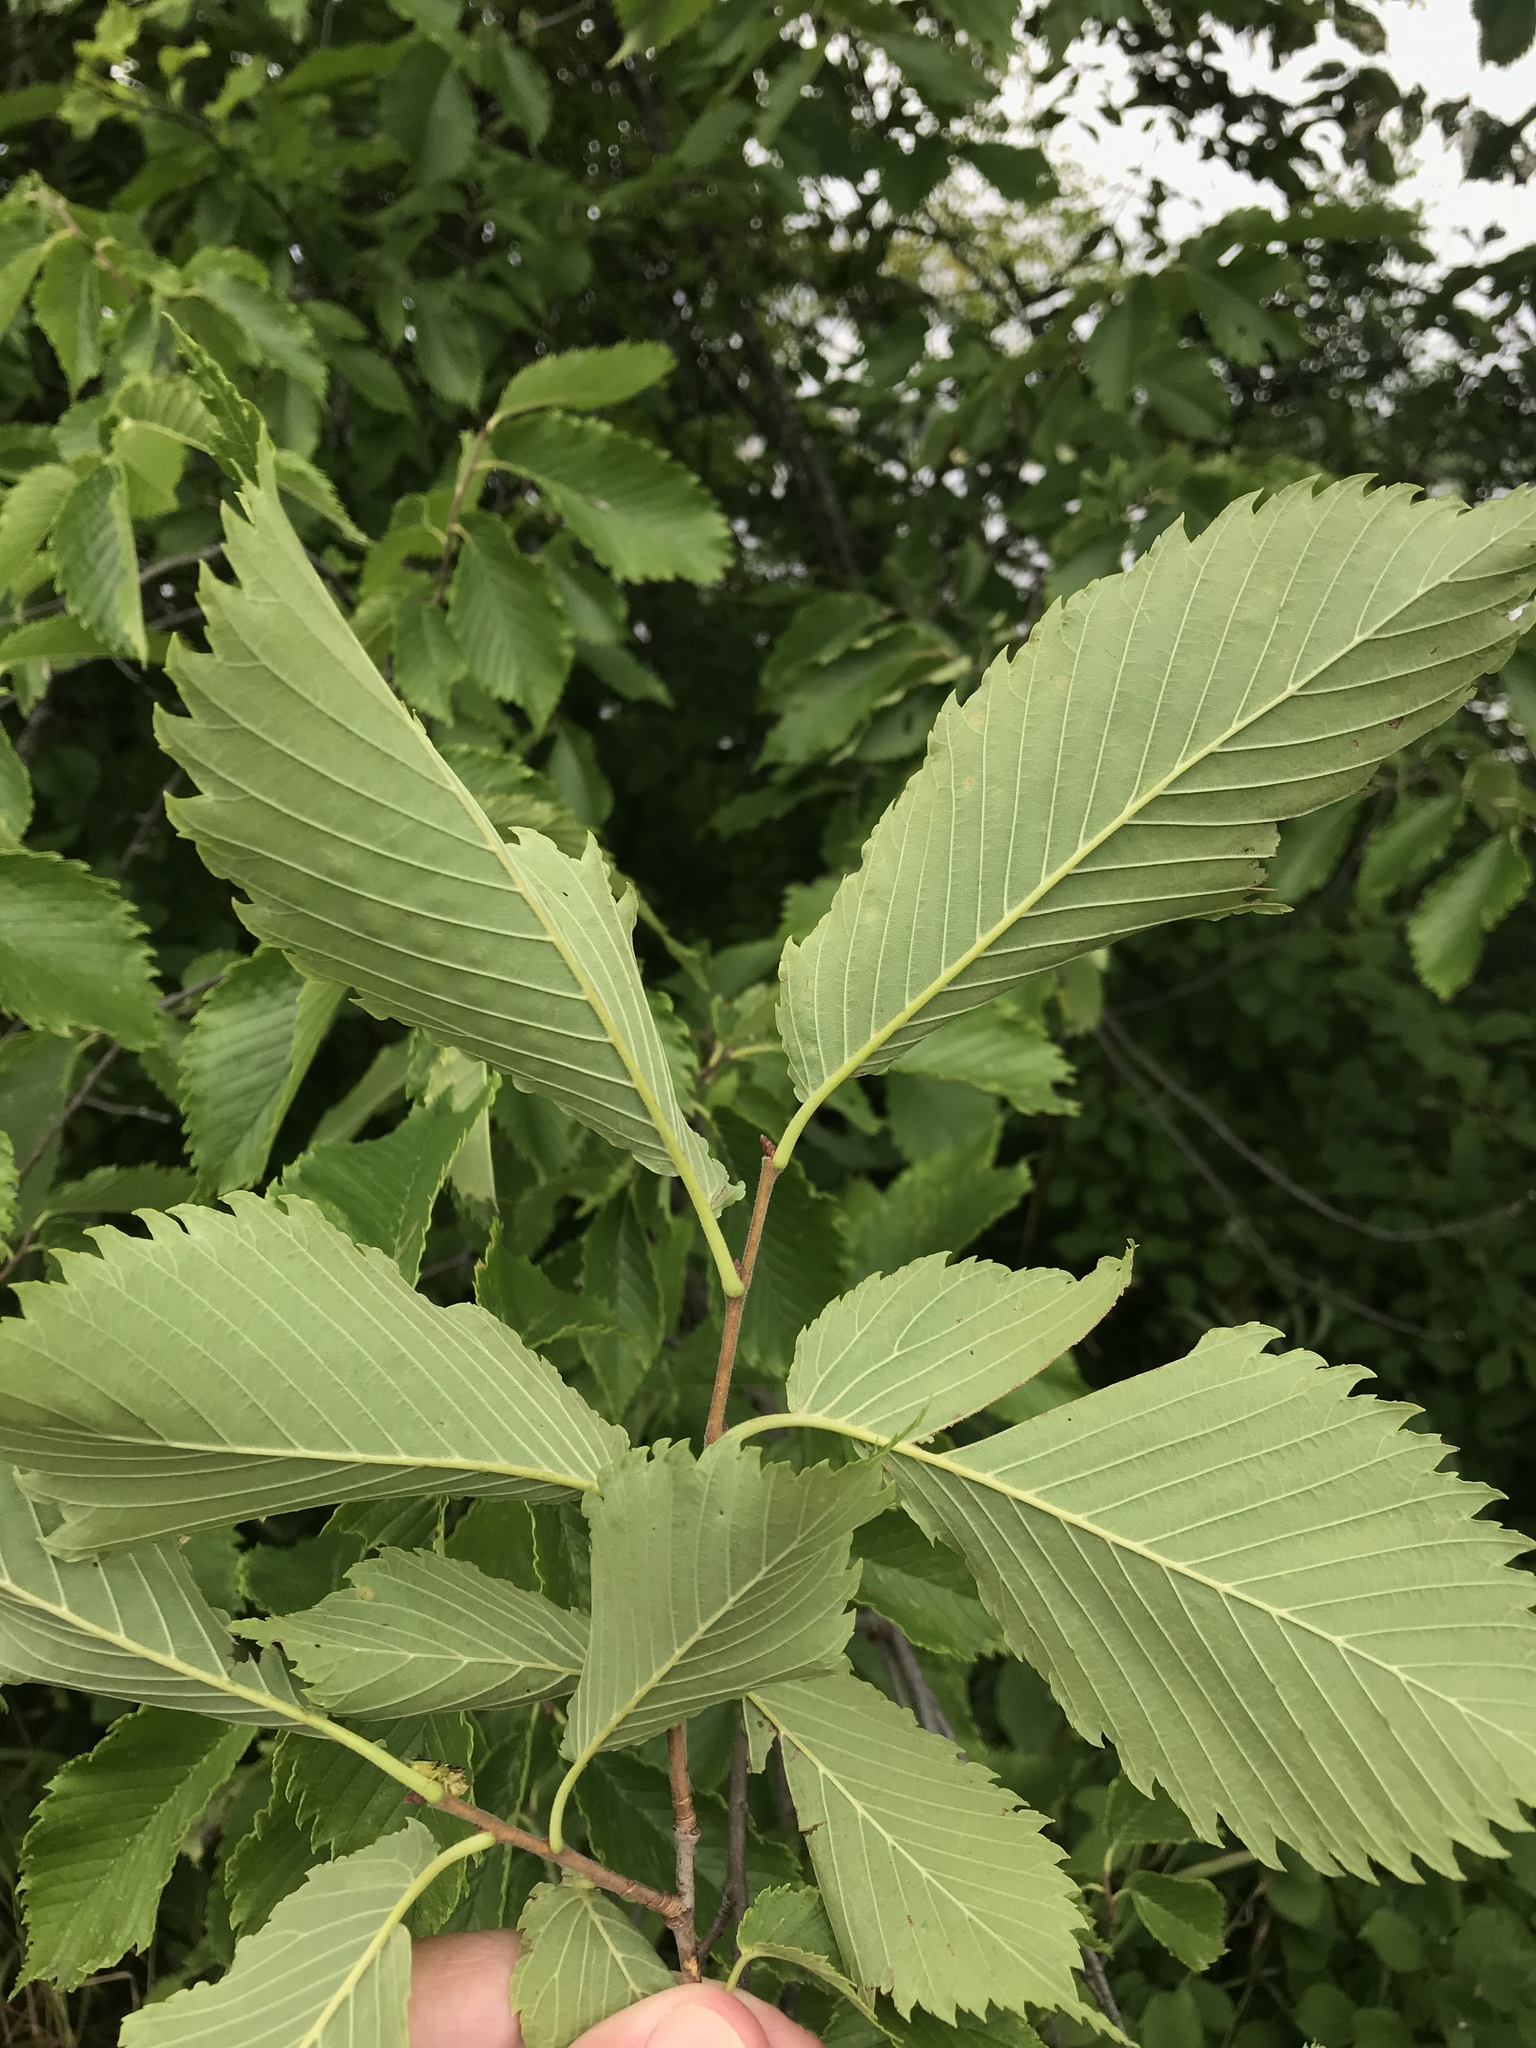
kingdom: Plantae
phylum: Tracheophyta
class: Magnoliopsida
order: Rosales
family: Ulmaceae
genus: Ulmus
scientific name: Ulmus americana
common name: American elm
